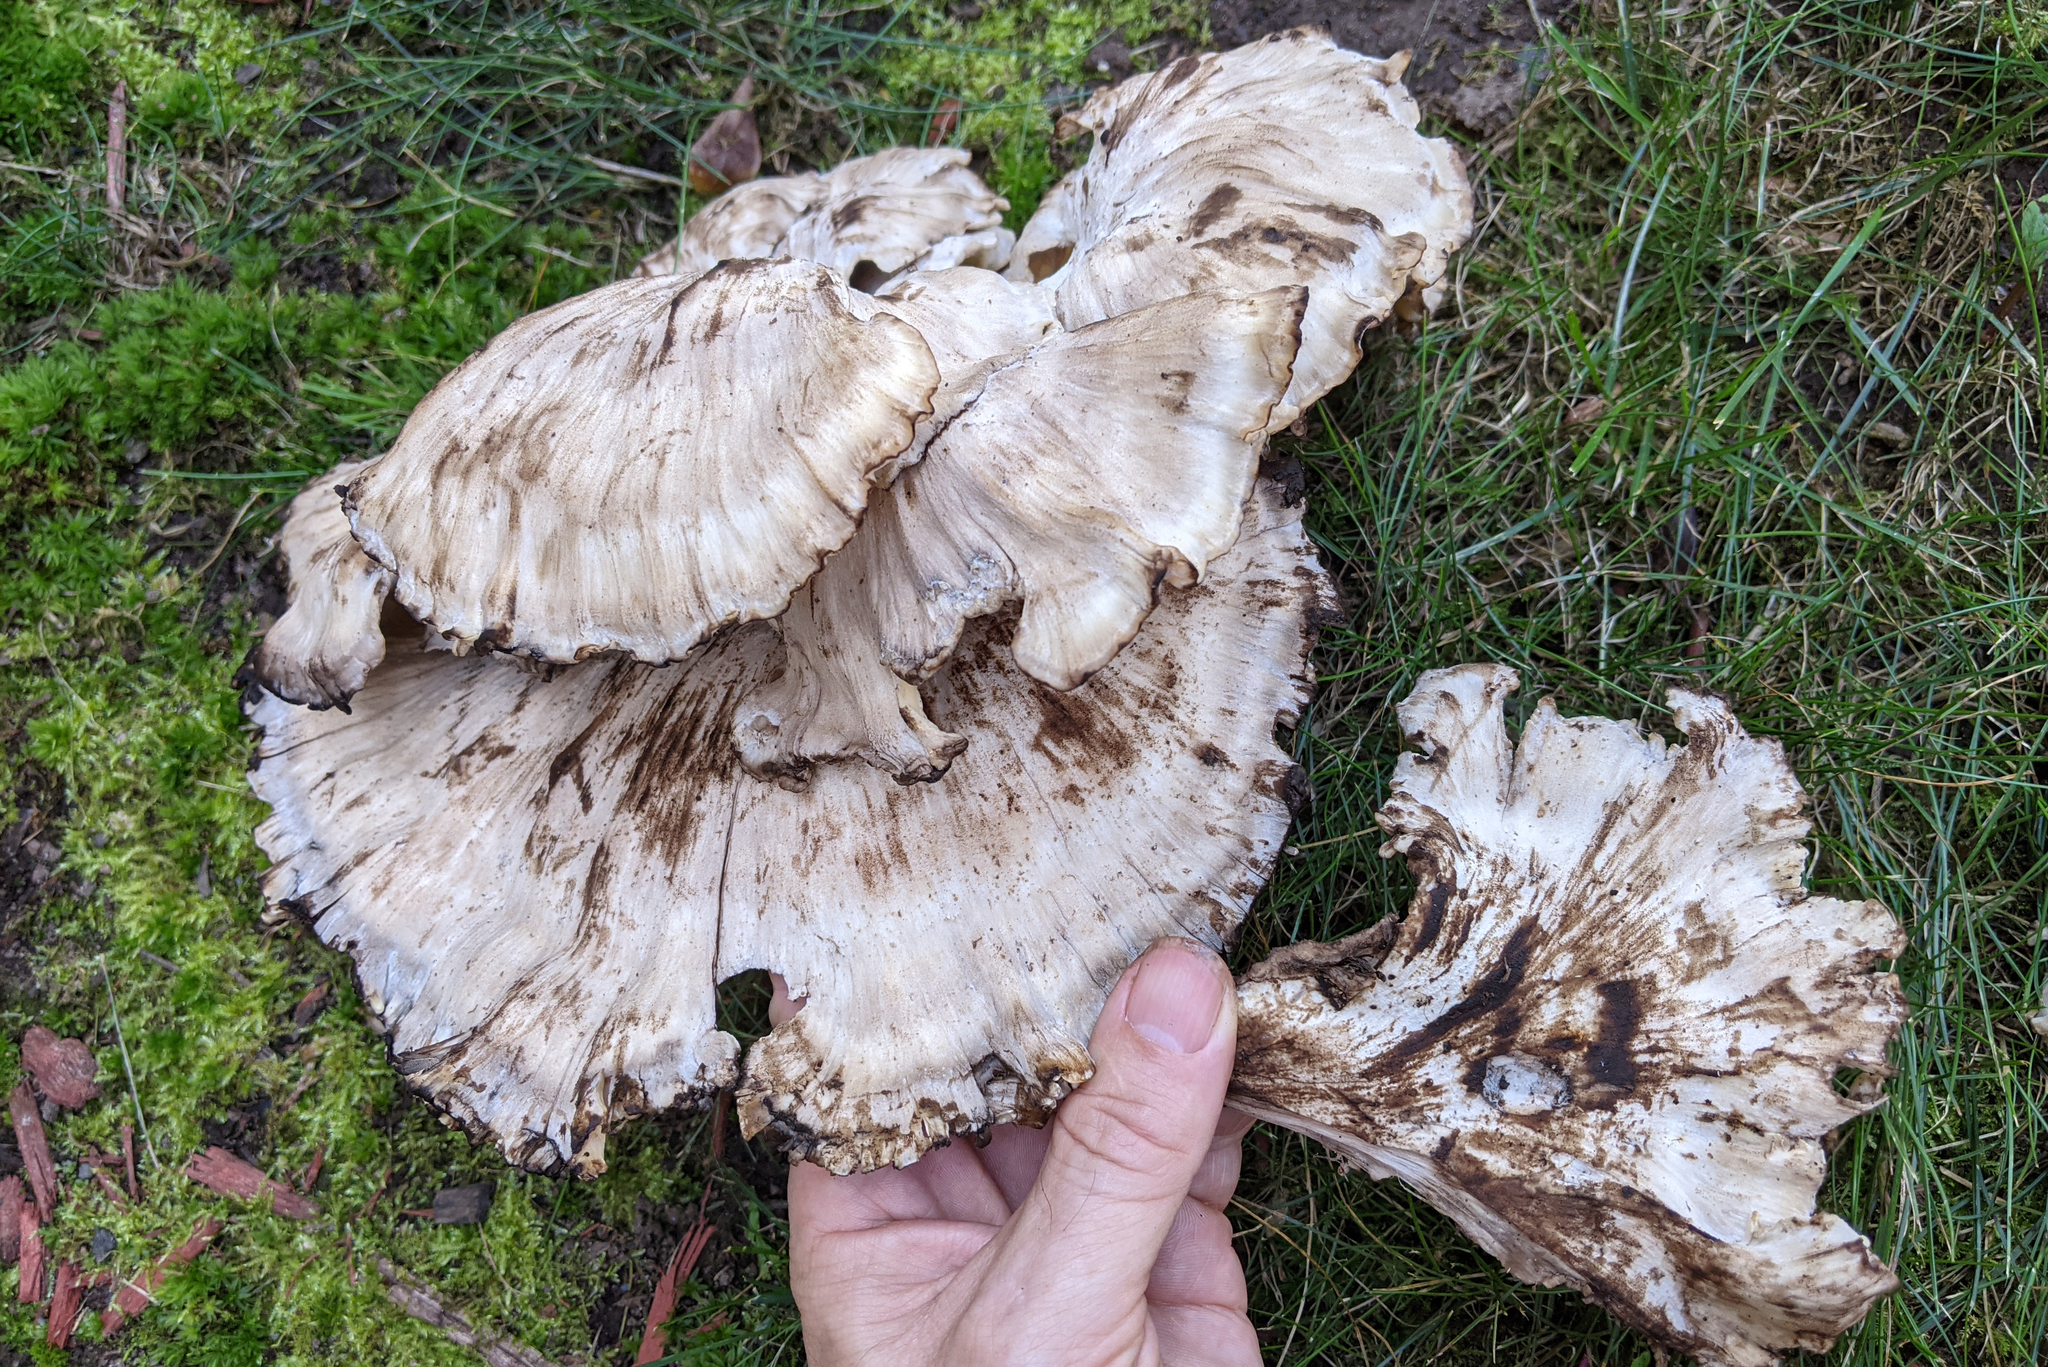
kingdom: Fungi
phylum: Basidiomycota
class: Agaricomycetes
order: Polyporales
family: Meripilaceae
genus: Meripilus
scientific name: Meripilus sumstinei
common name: Black-staining polypore
